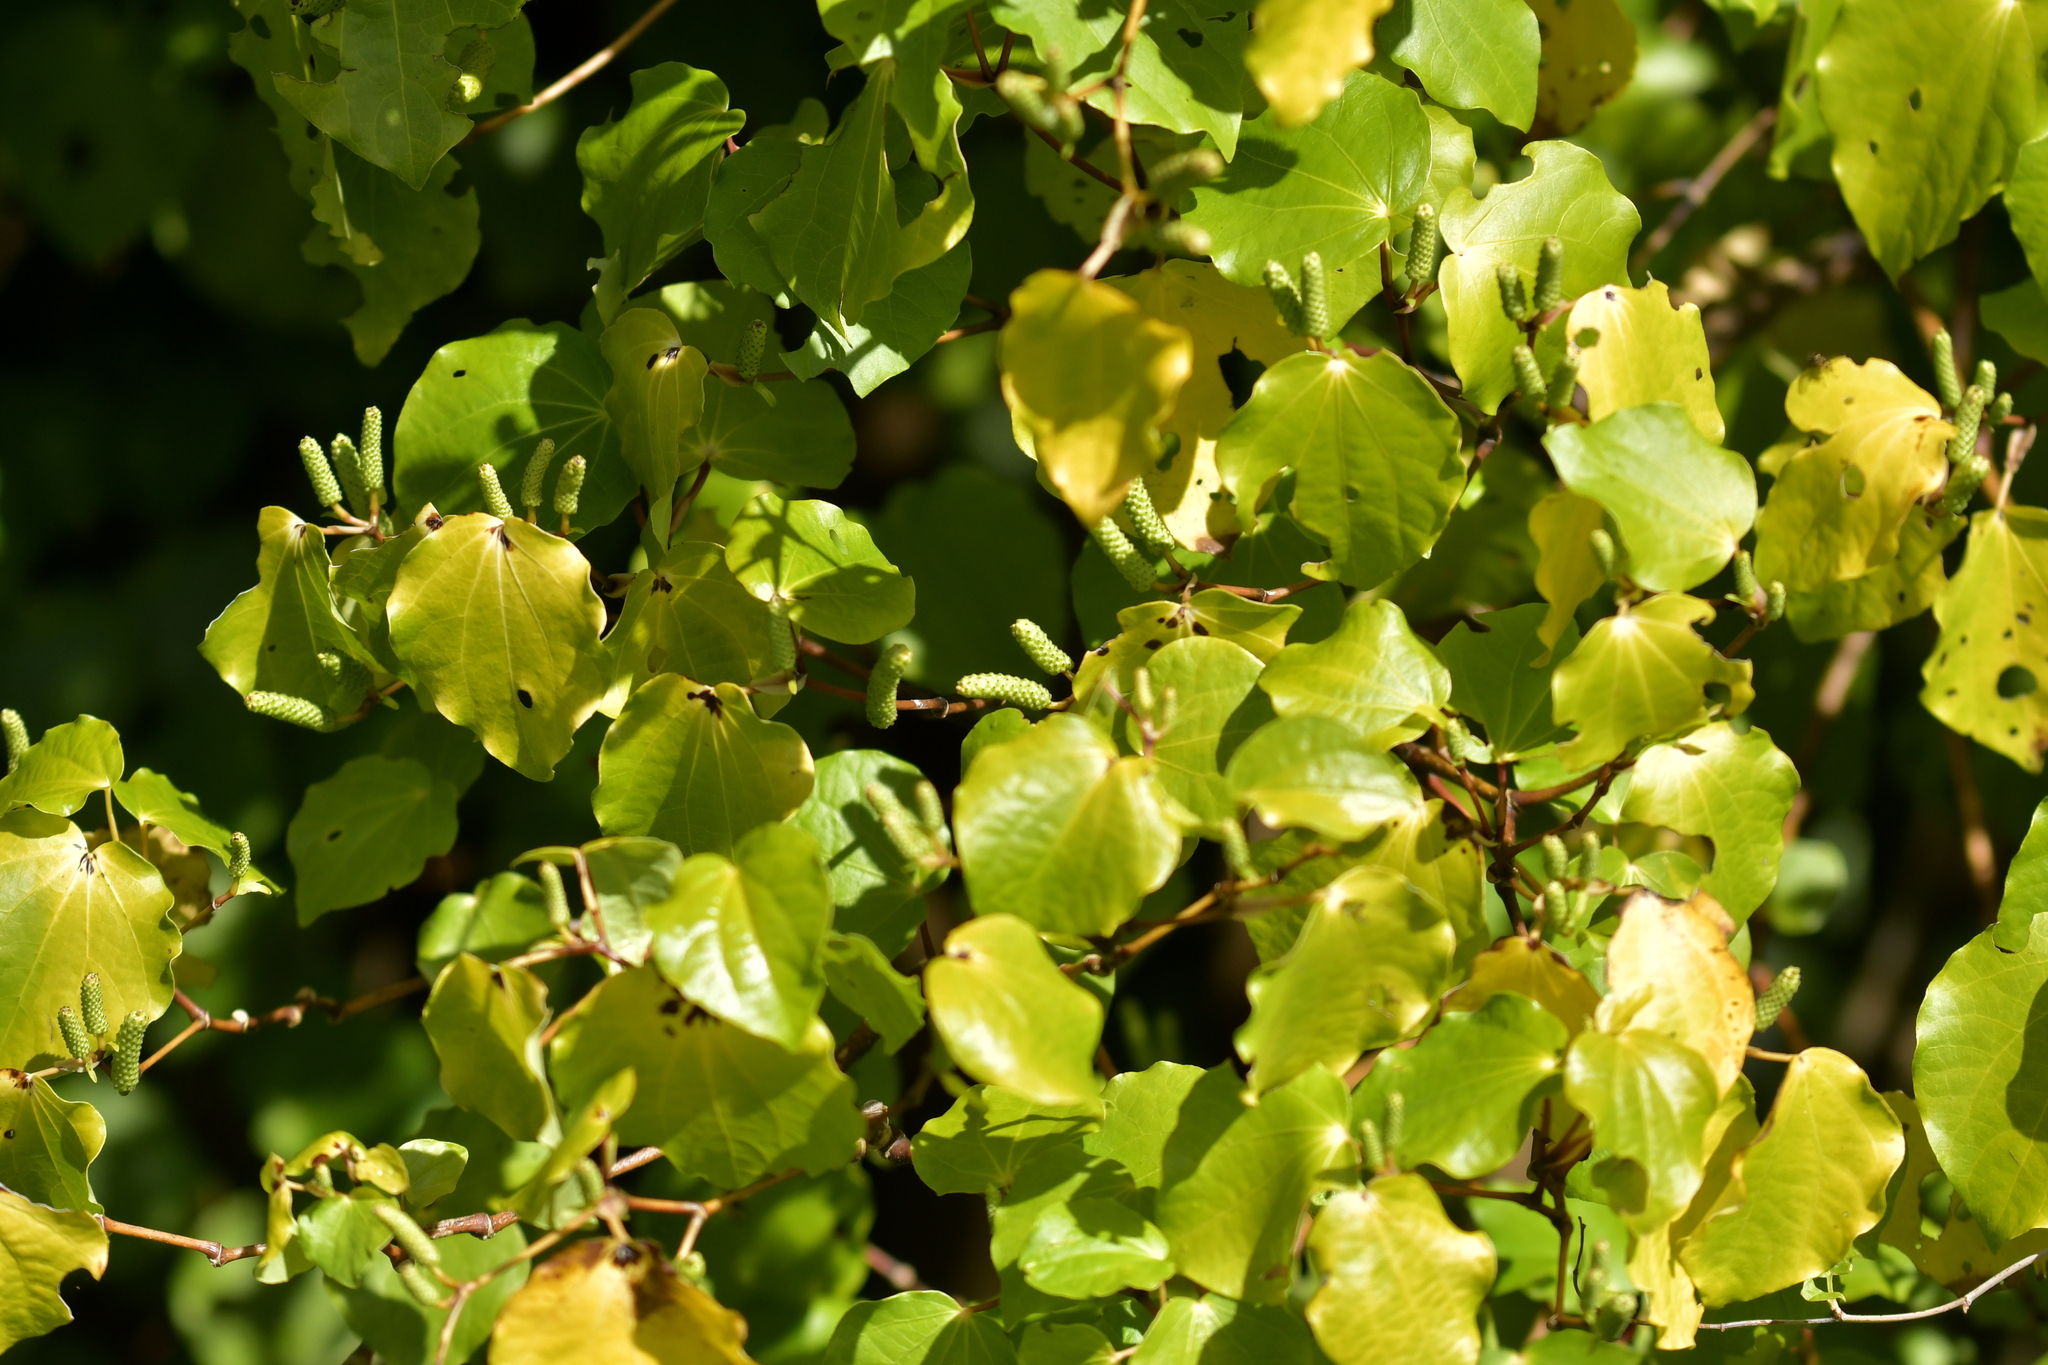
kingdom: Plantae
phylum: Tracheophyta
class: Magnoliopsida
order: Piperales
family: Piperaceae
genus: Macropiper
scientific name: Macropiper excelsum
